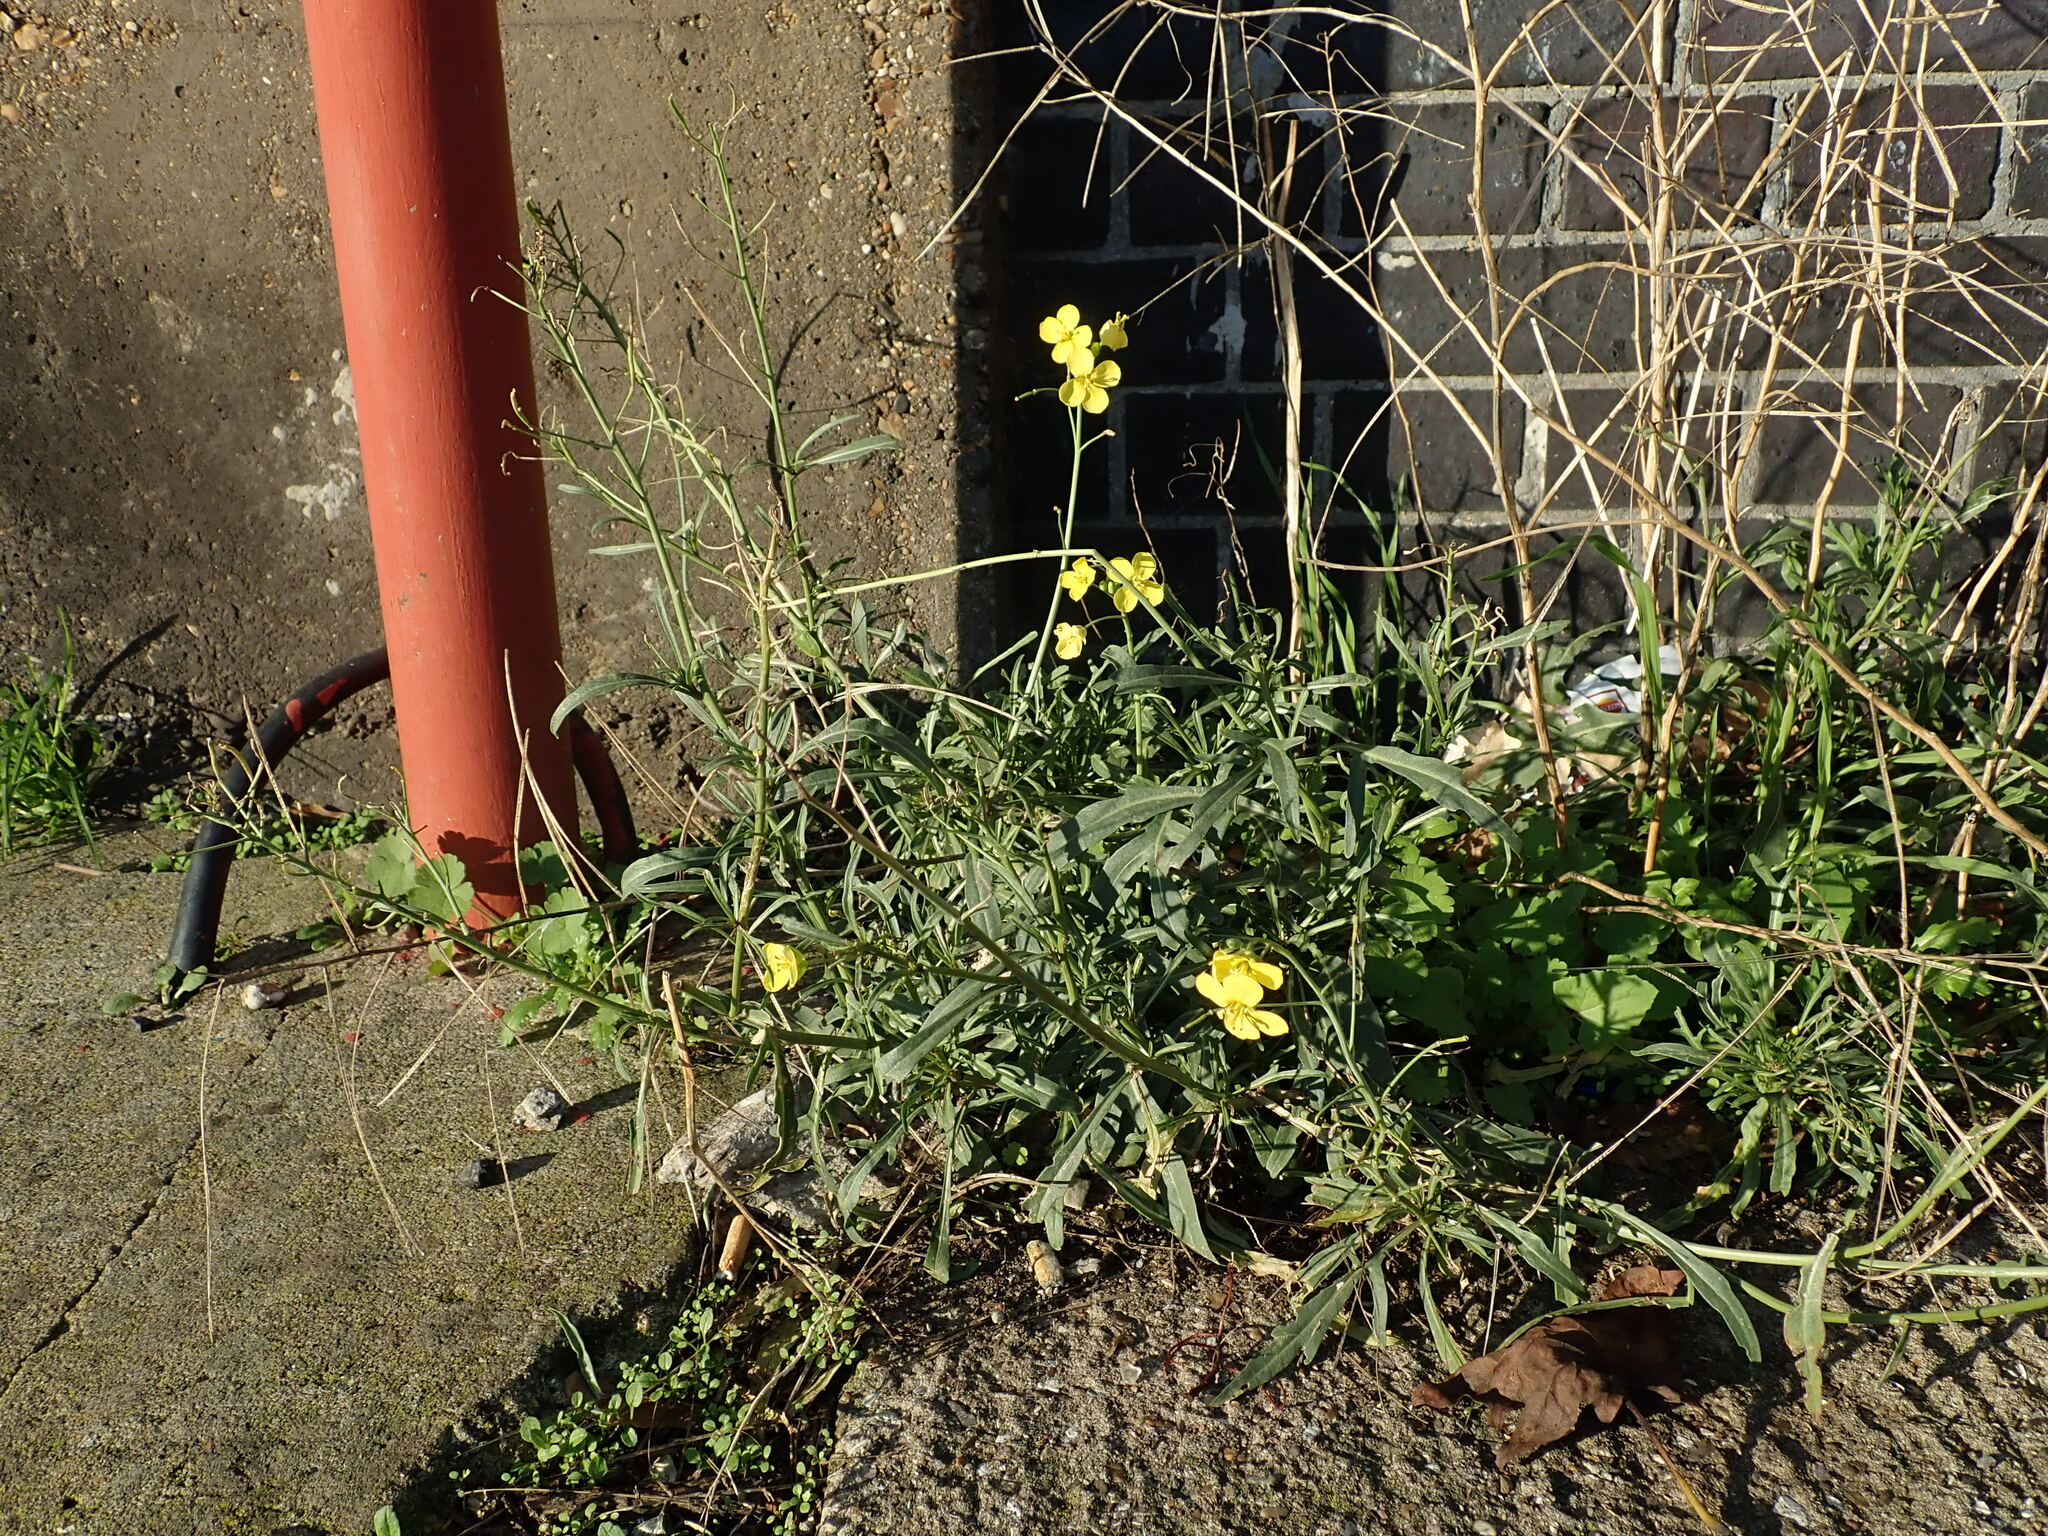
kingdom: Plantae
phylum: Tracheophyta
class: Magnoliopsida
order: Brassicales
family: Brassicaceae
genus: Diplotaxis
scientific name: Diplotaxis tenuifolia
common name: Perennial wall-rocket
